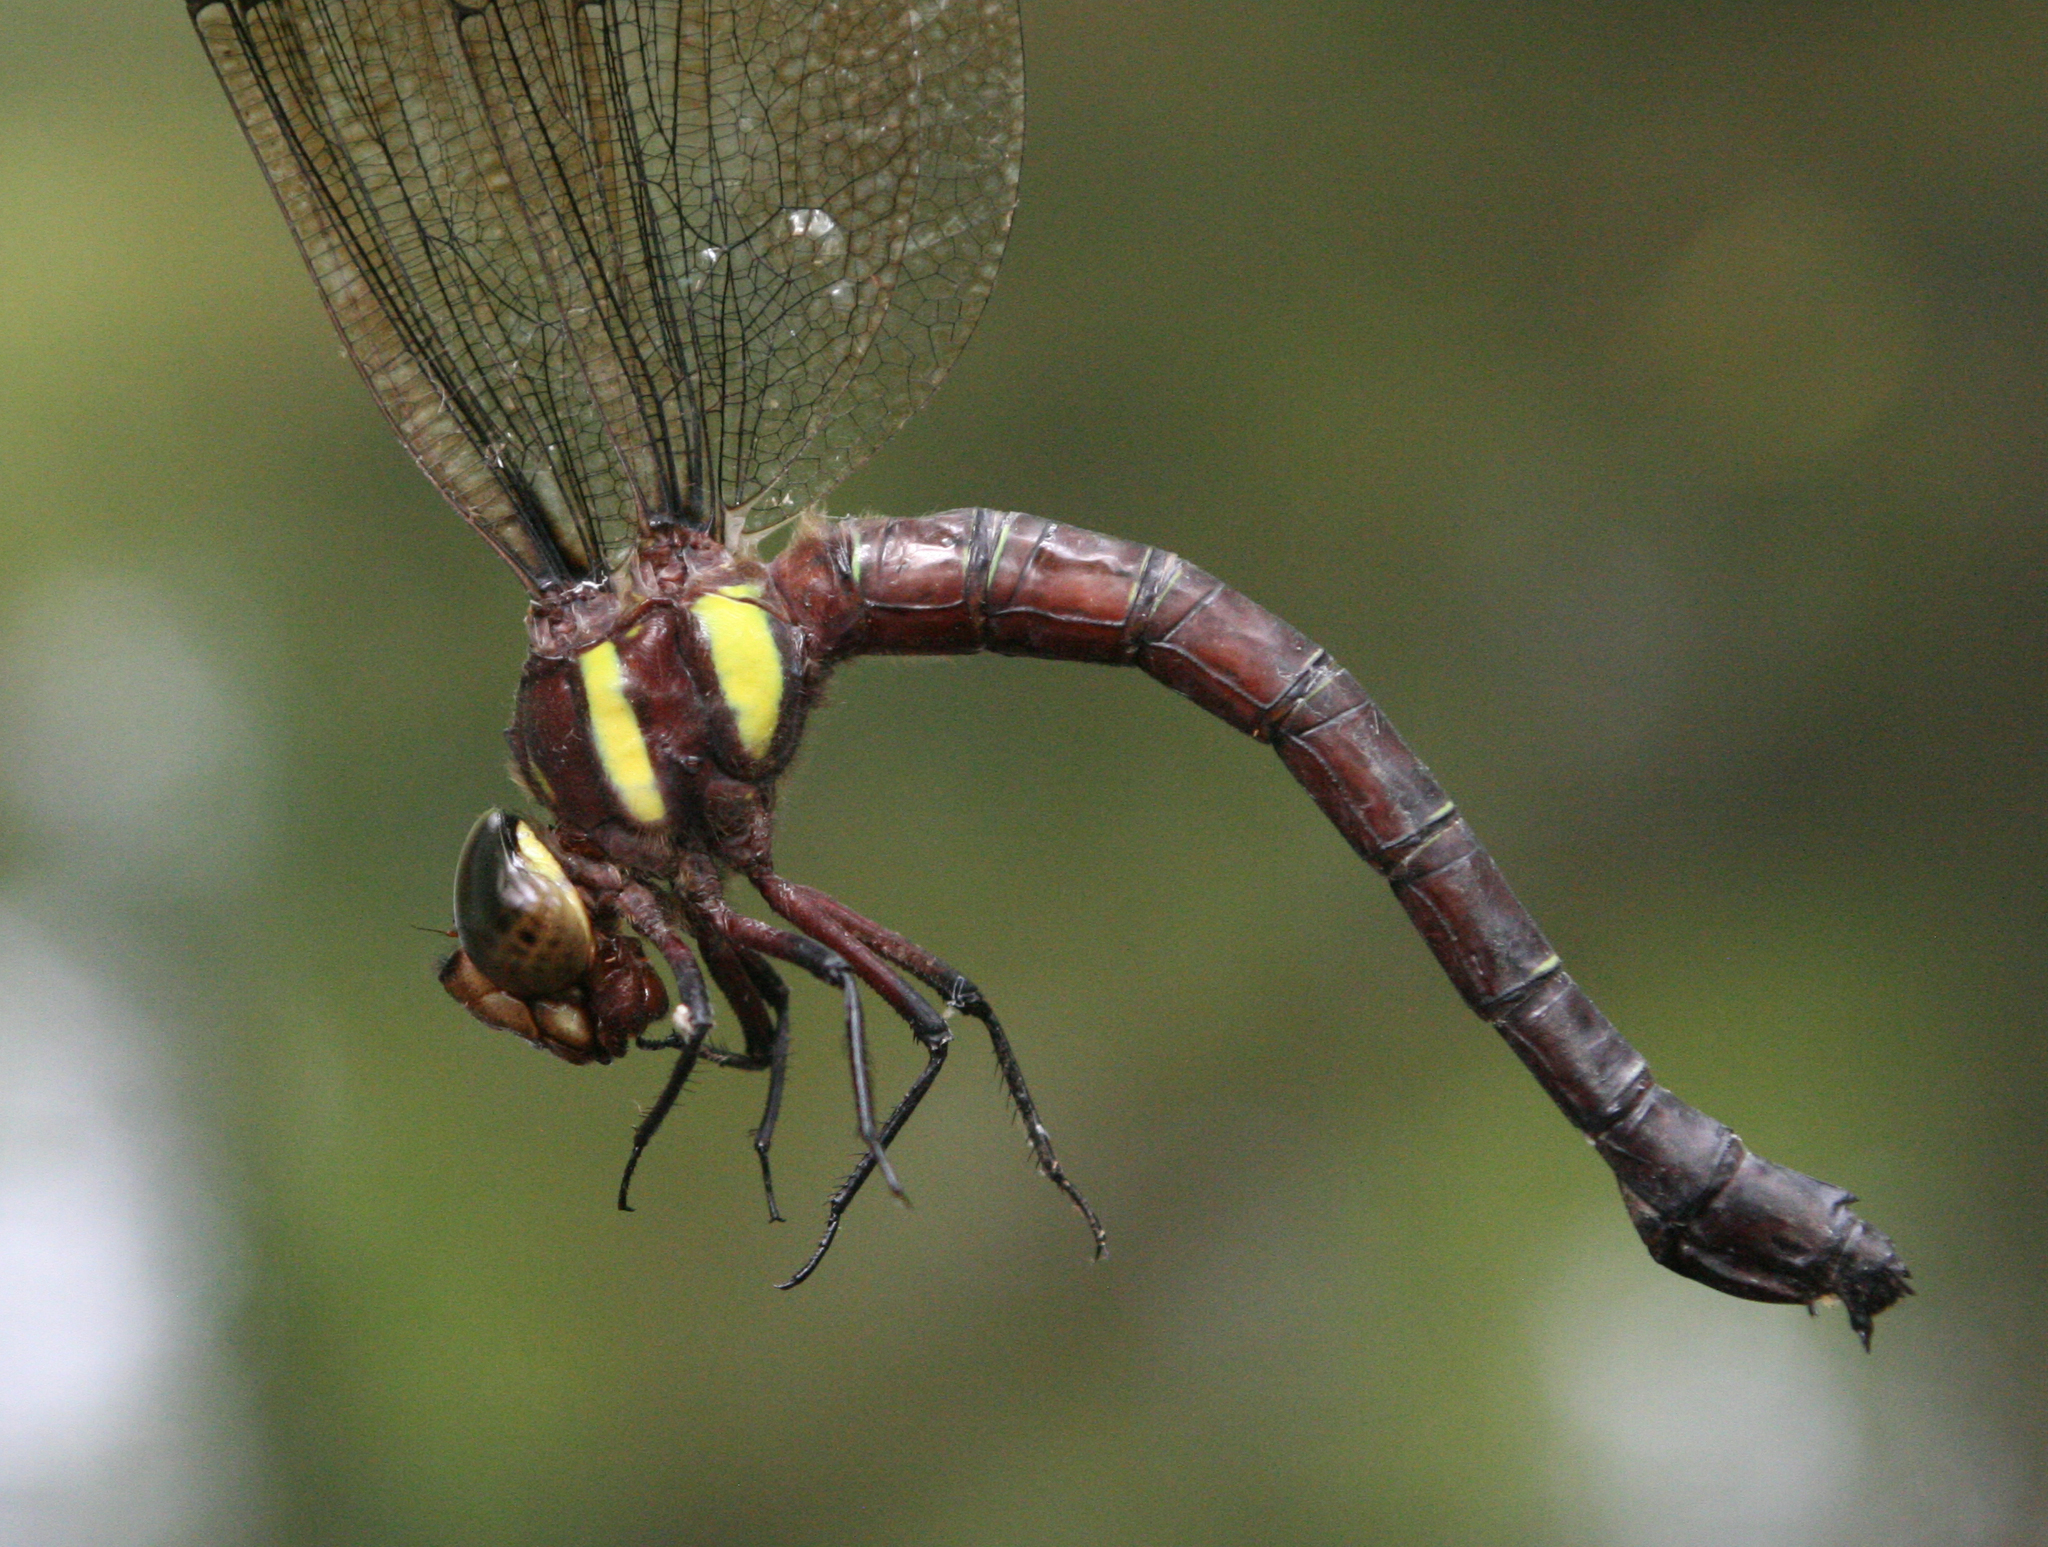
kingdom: Animalia
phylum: Arthropoda
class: Insecta
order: Odonata
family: Aeshnidae
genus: Tetracanthagyna
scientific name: Tetracanthagyna waterhousei
